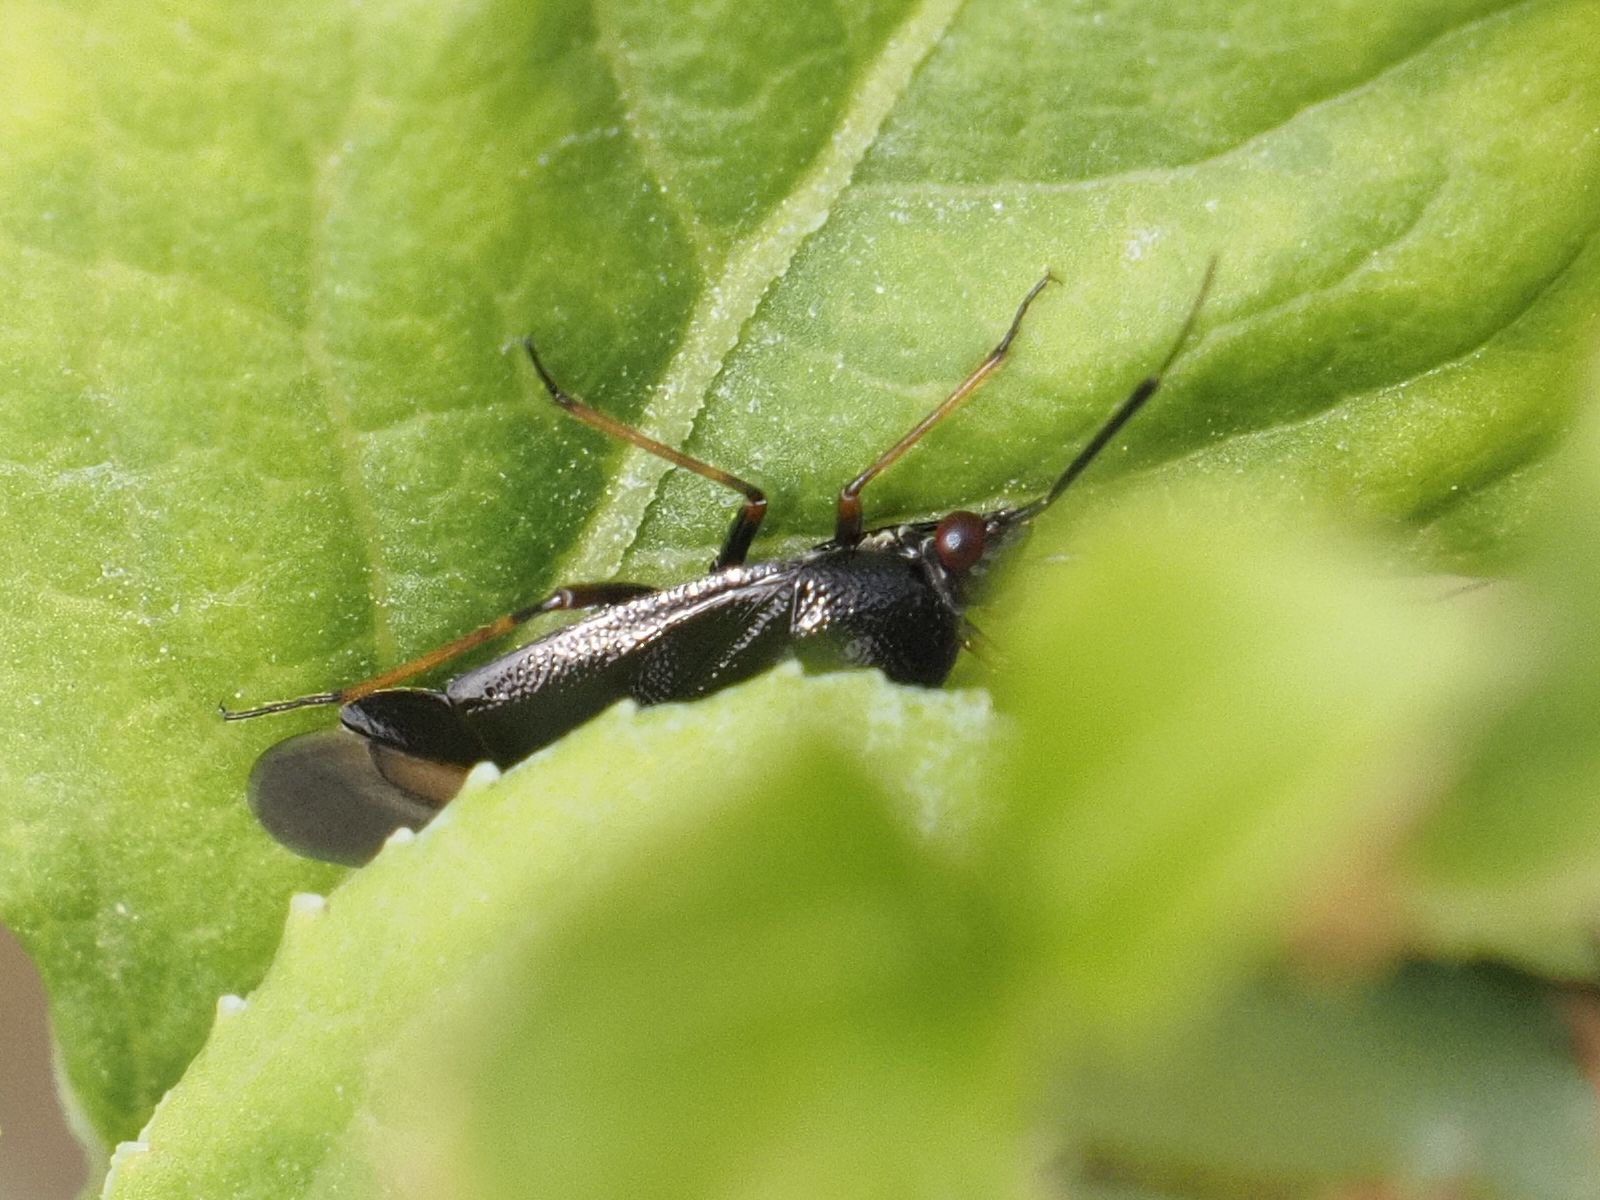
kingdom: Animalia
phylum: Arthropoda
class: Insecta
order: Hemiptera
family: Miridae
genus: Deraeocoris
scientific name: Deraeocoris ruber
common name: Plant bug
